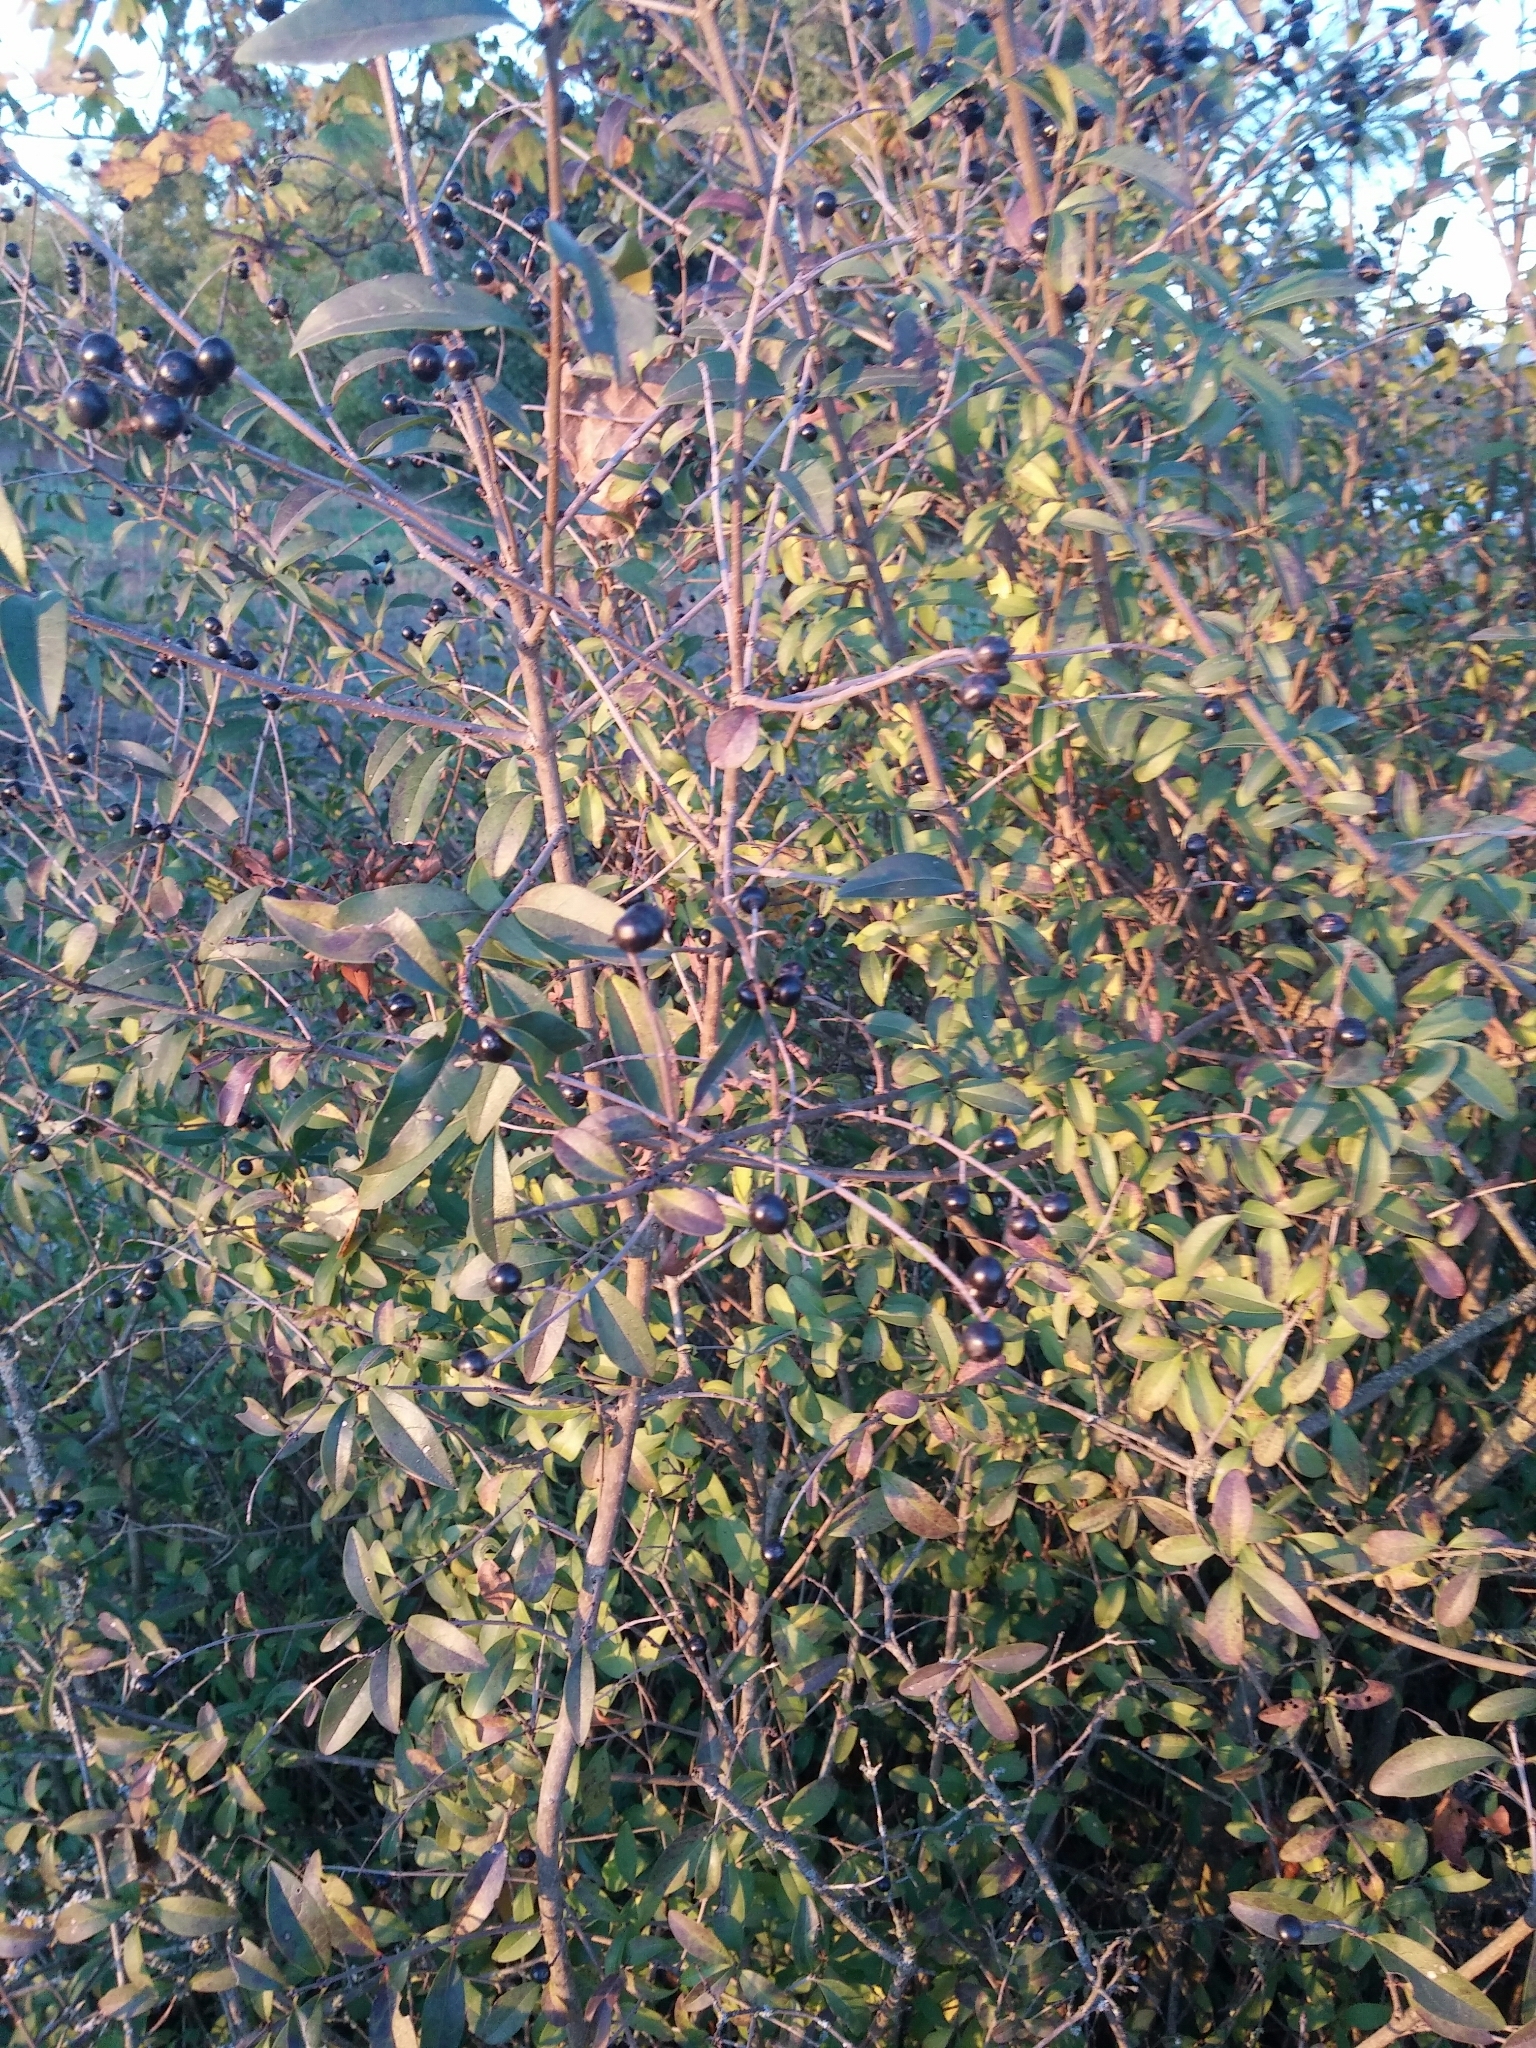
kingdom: Plantae
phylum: Tracheophyta
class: Magnoliopsida
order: Lamiales
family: Oleaceae
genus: Ligustrum
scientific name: Ligustrum vulgare
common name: Wild privet
